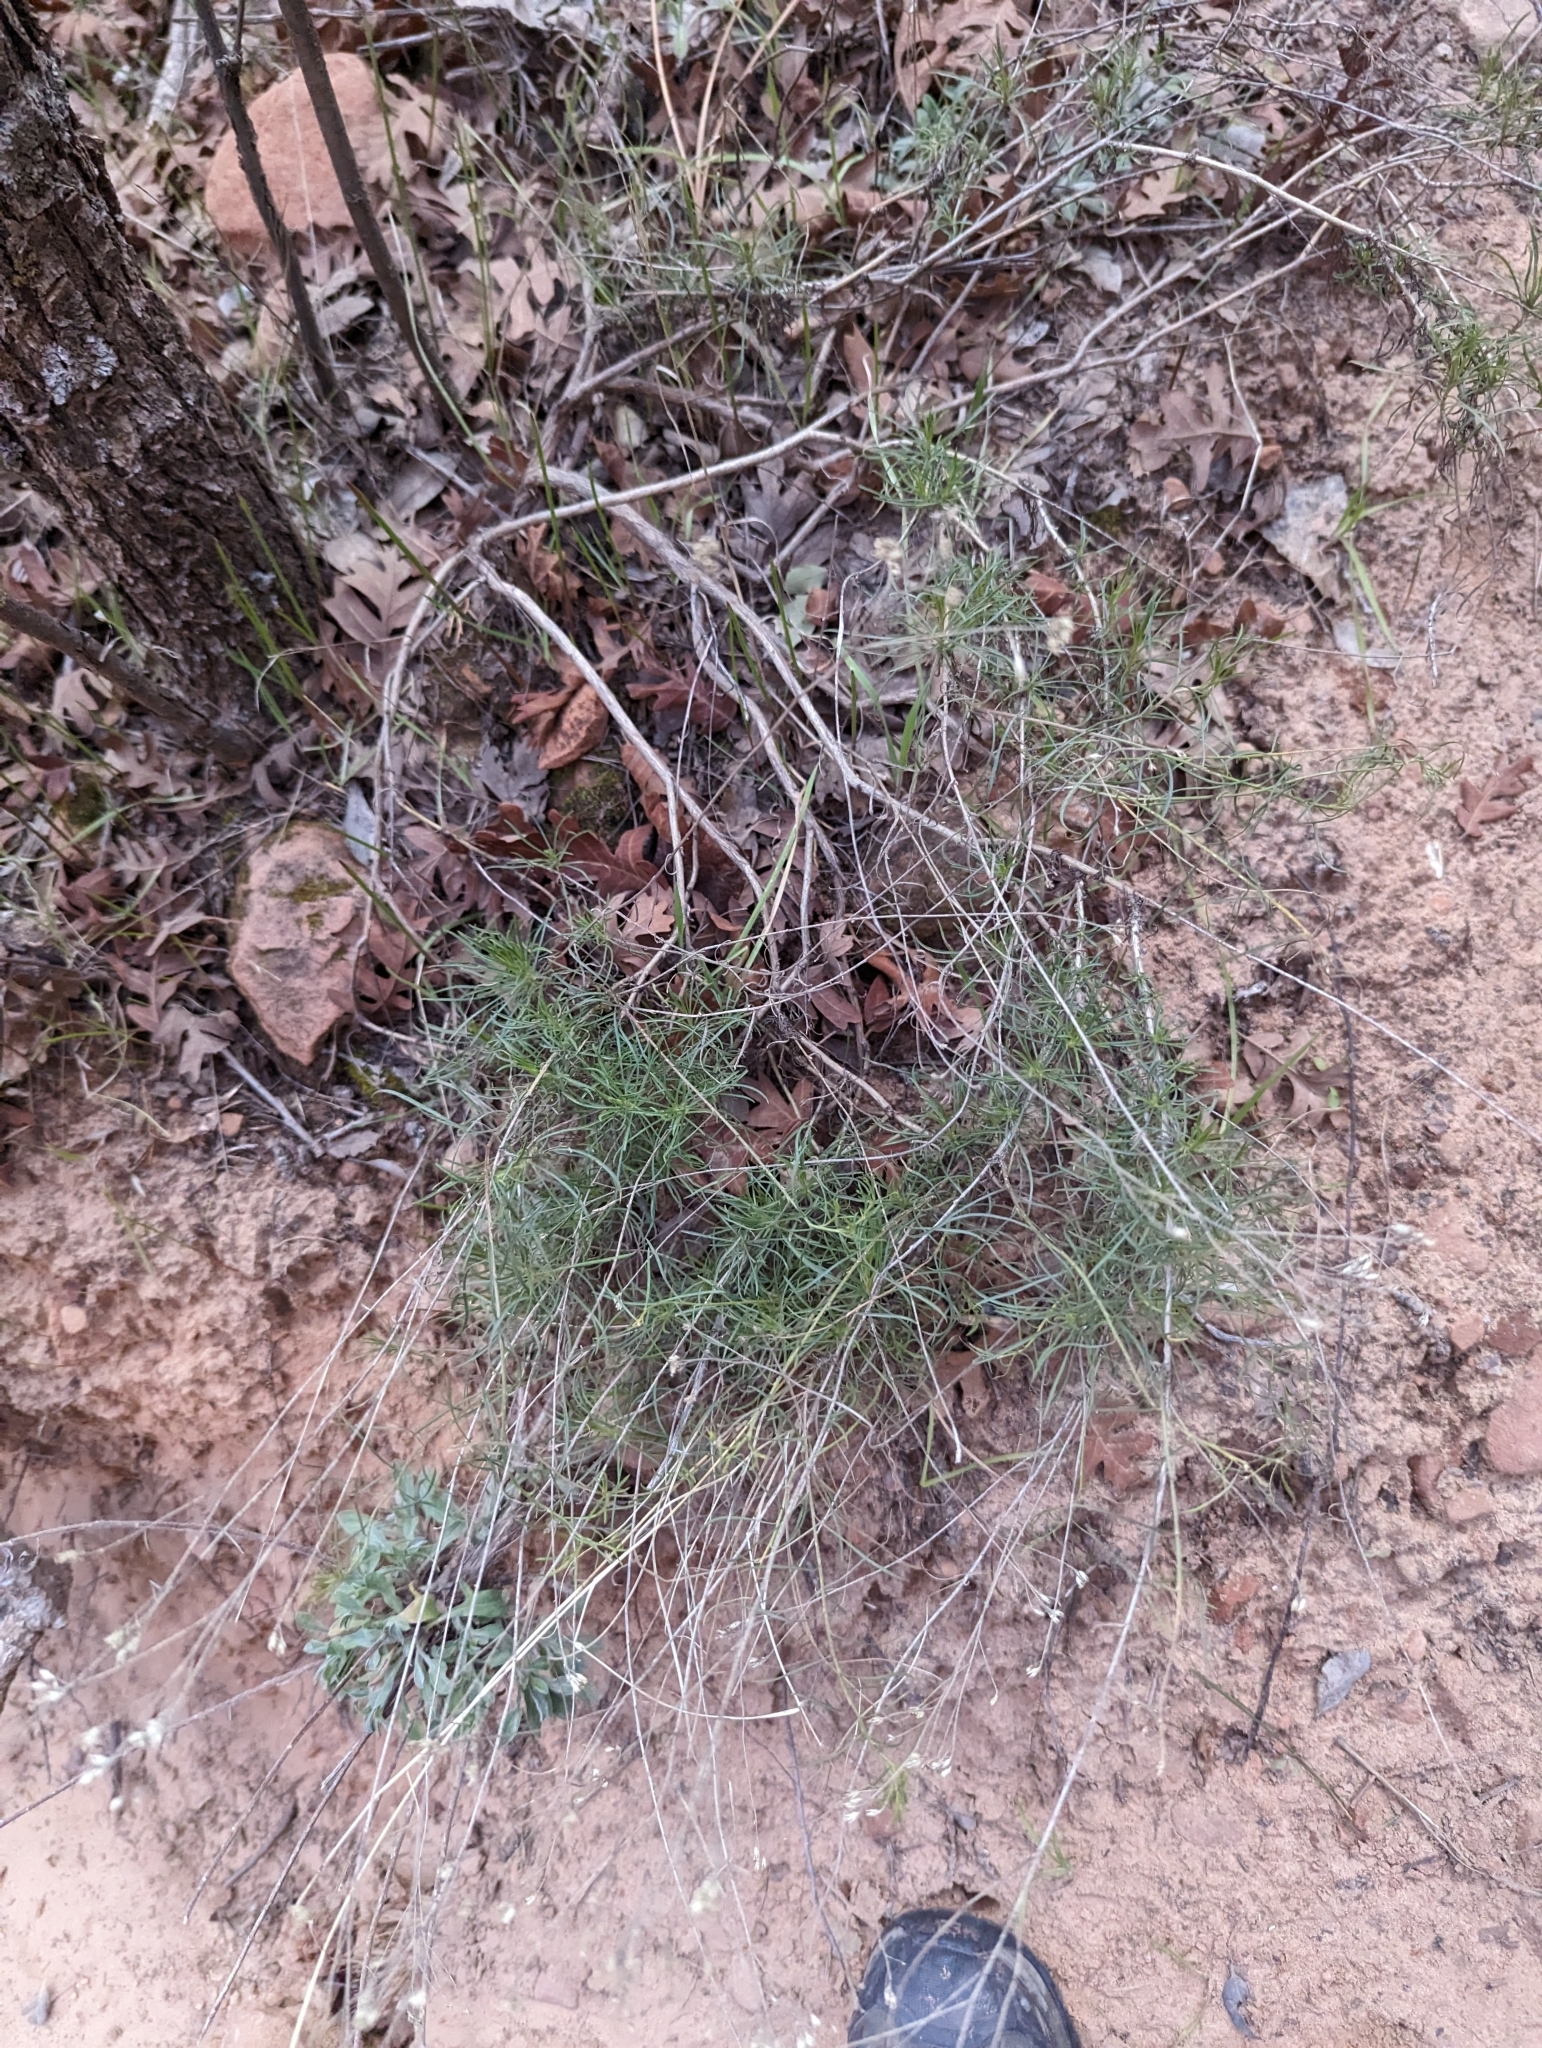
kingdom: Plantae
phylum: Tracheophyta
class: Magnoliopsida
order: Asterales
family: Asteraceae
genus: Gutierrezia
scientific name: Gutierrezia sarothrae
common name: Broom snakeweed
